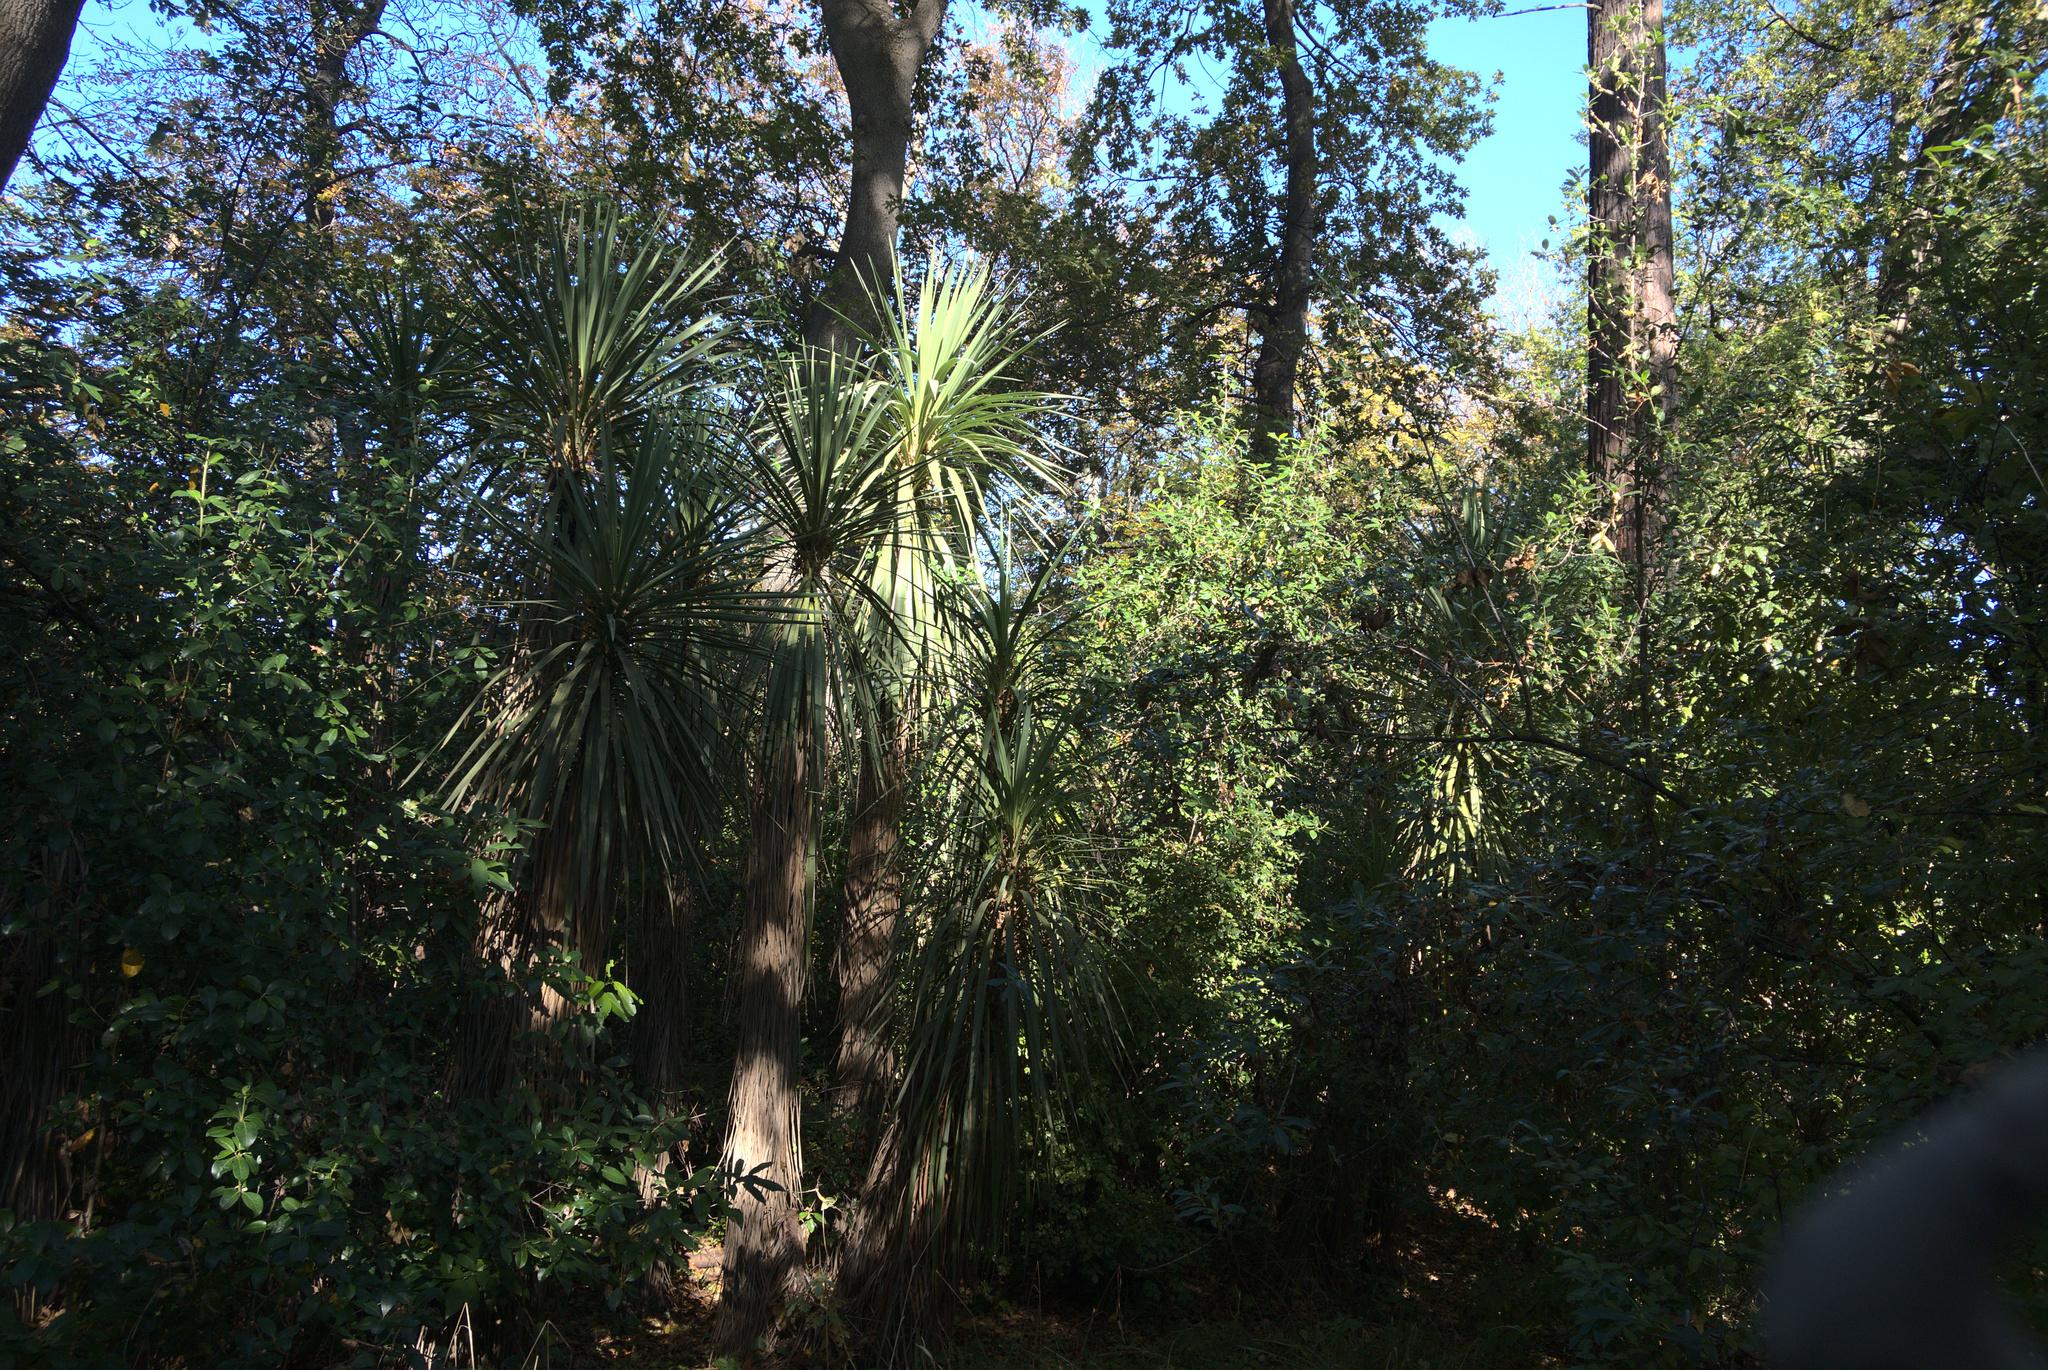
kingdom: Plantae
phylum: Tracheophyta
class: Liliopsida
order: Asparagales
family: Asparagaceae
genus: Cordyline
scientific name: Cordyline australis
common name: Cabbage-palm
